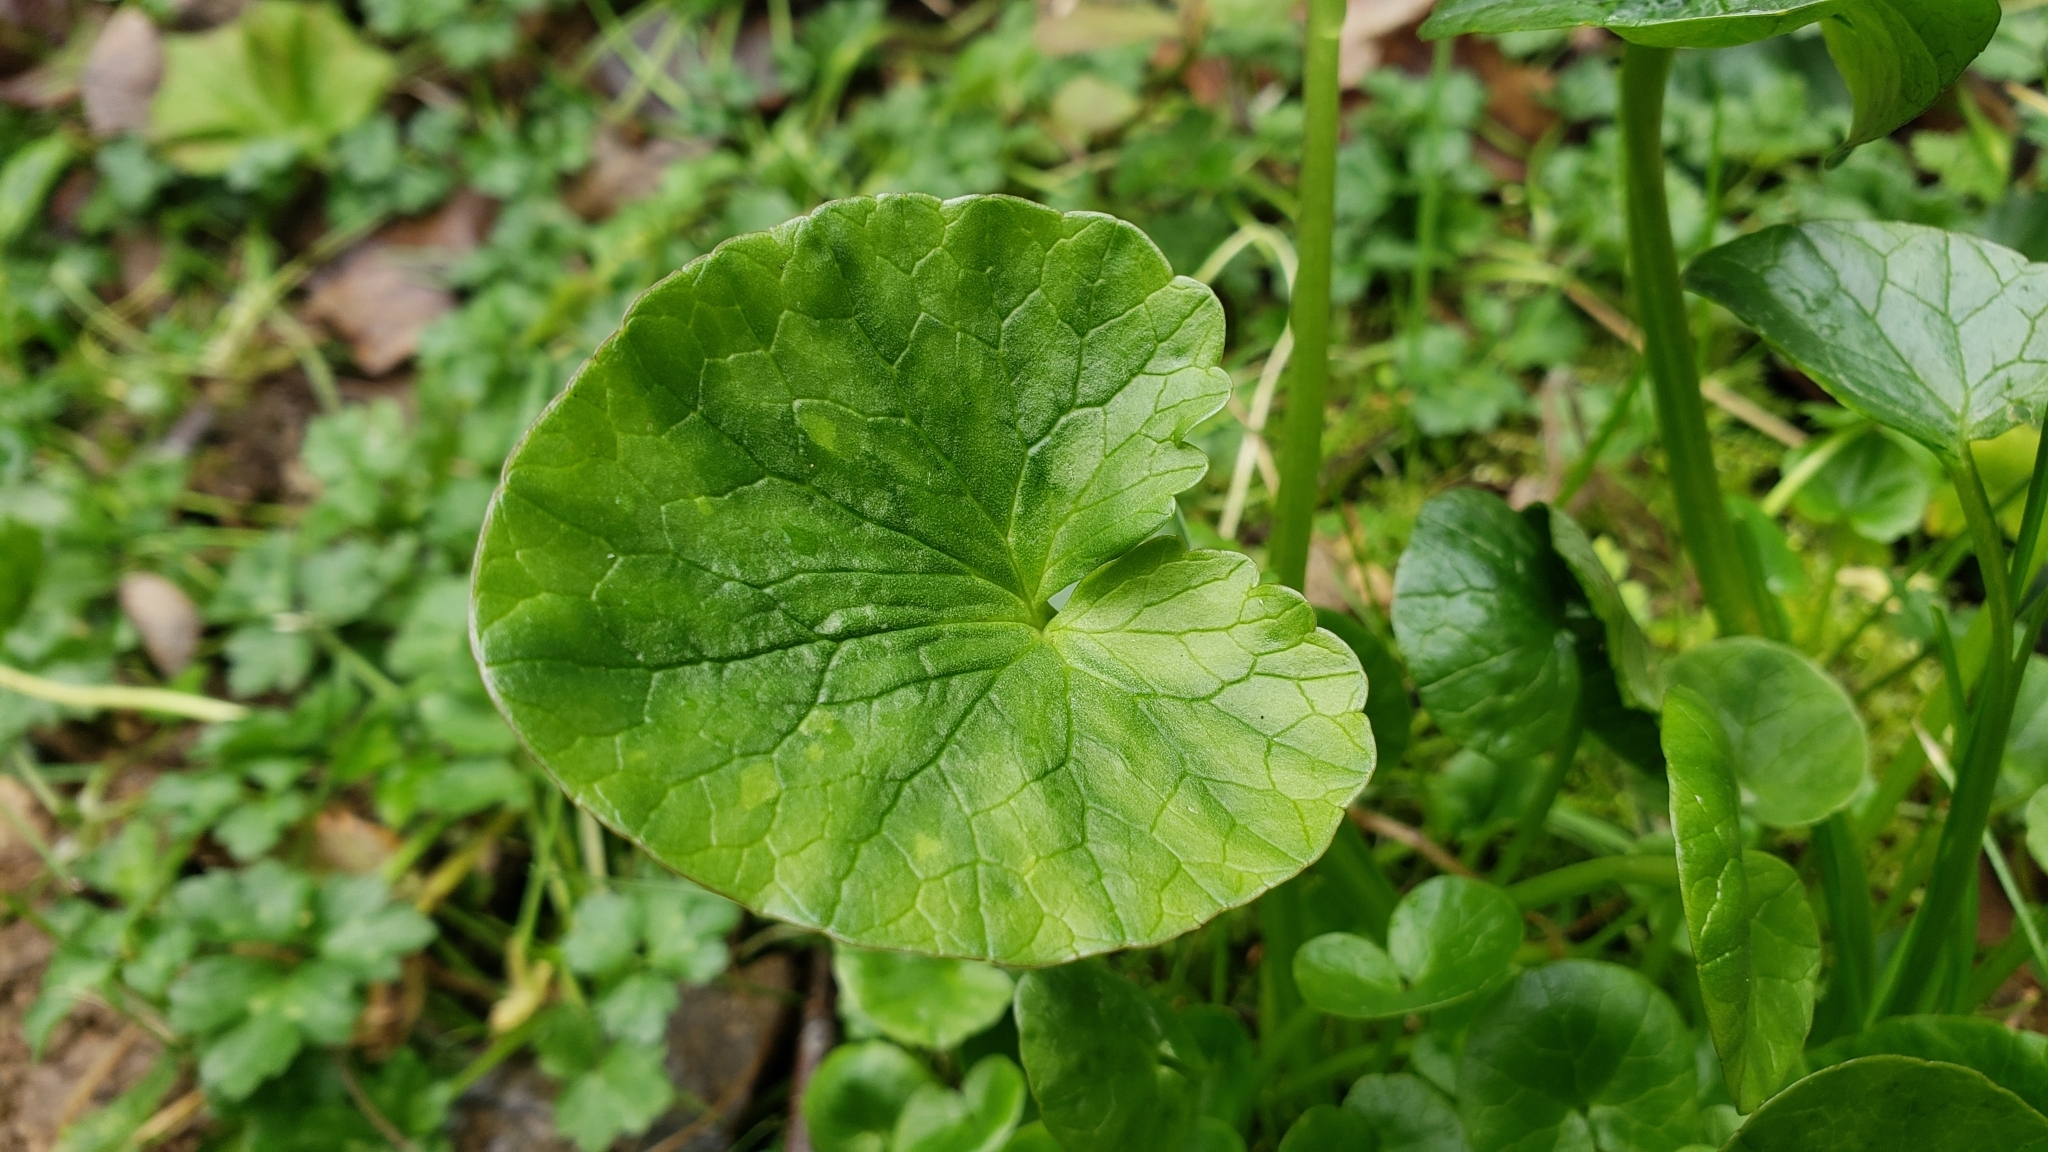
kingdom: Plantae
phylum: Tracheophyta
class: Magnoliopsida
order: Ranunculales
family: Ranunculaceae
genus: Ficaria
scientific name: Ficaria verna
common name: Lesser celandine
